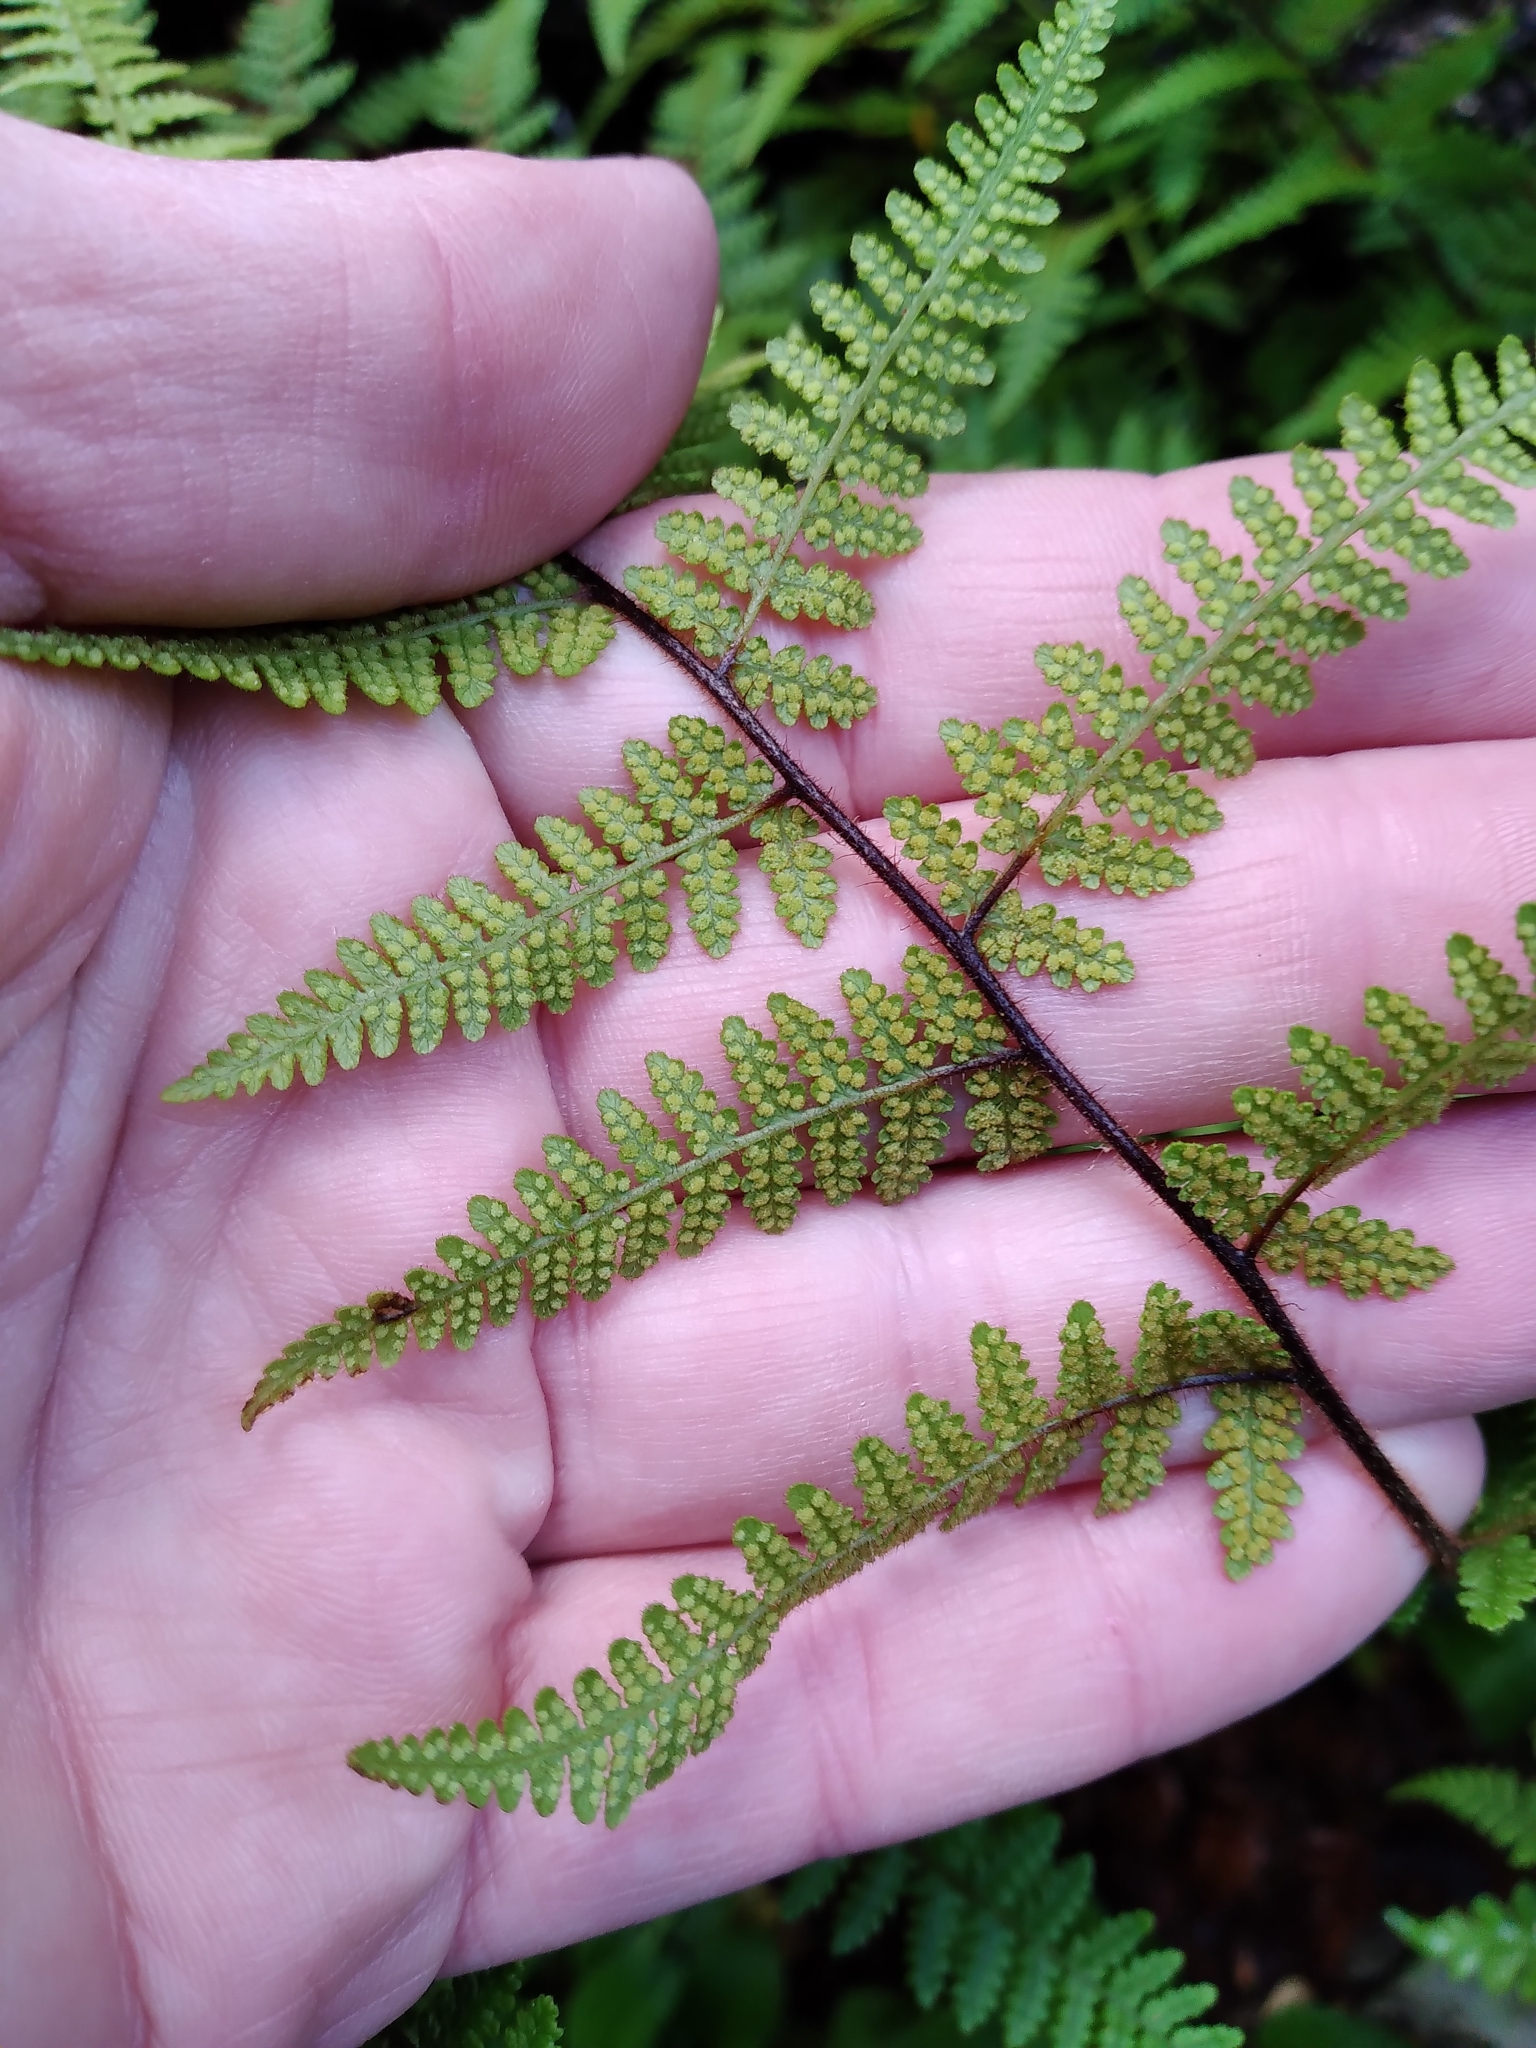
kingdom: Plantae
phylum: Tracheophyta
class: Polypodiopsida
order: Polypodiales
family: Dennstaedtiaceae
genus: Hypolepis
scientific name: Hypolepis rugosula
